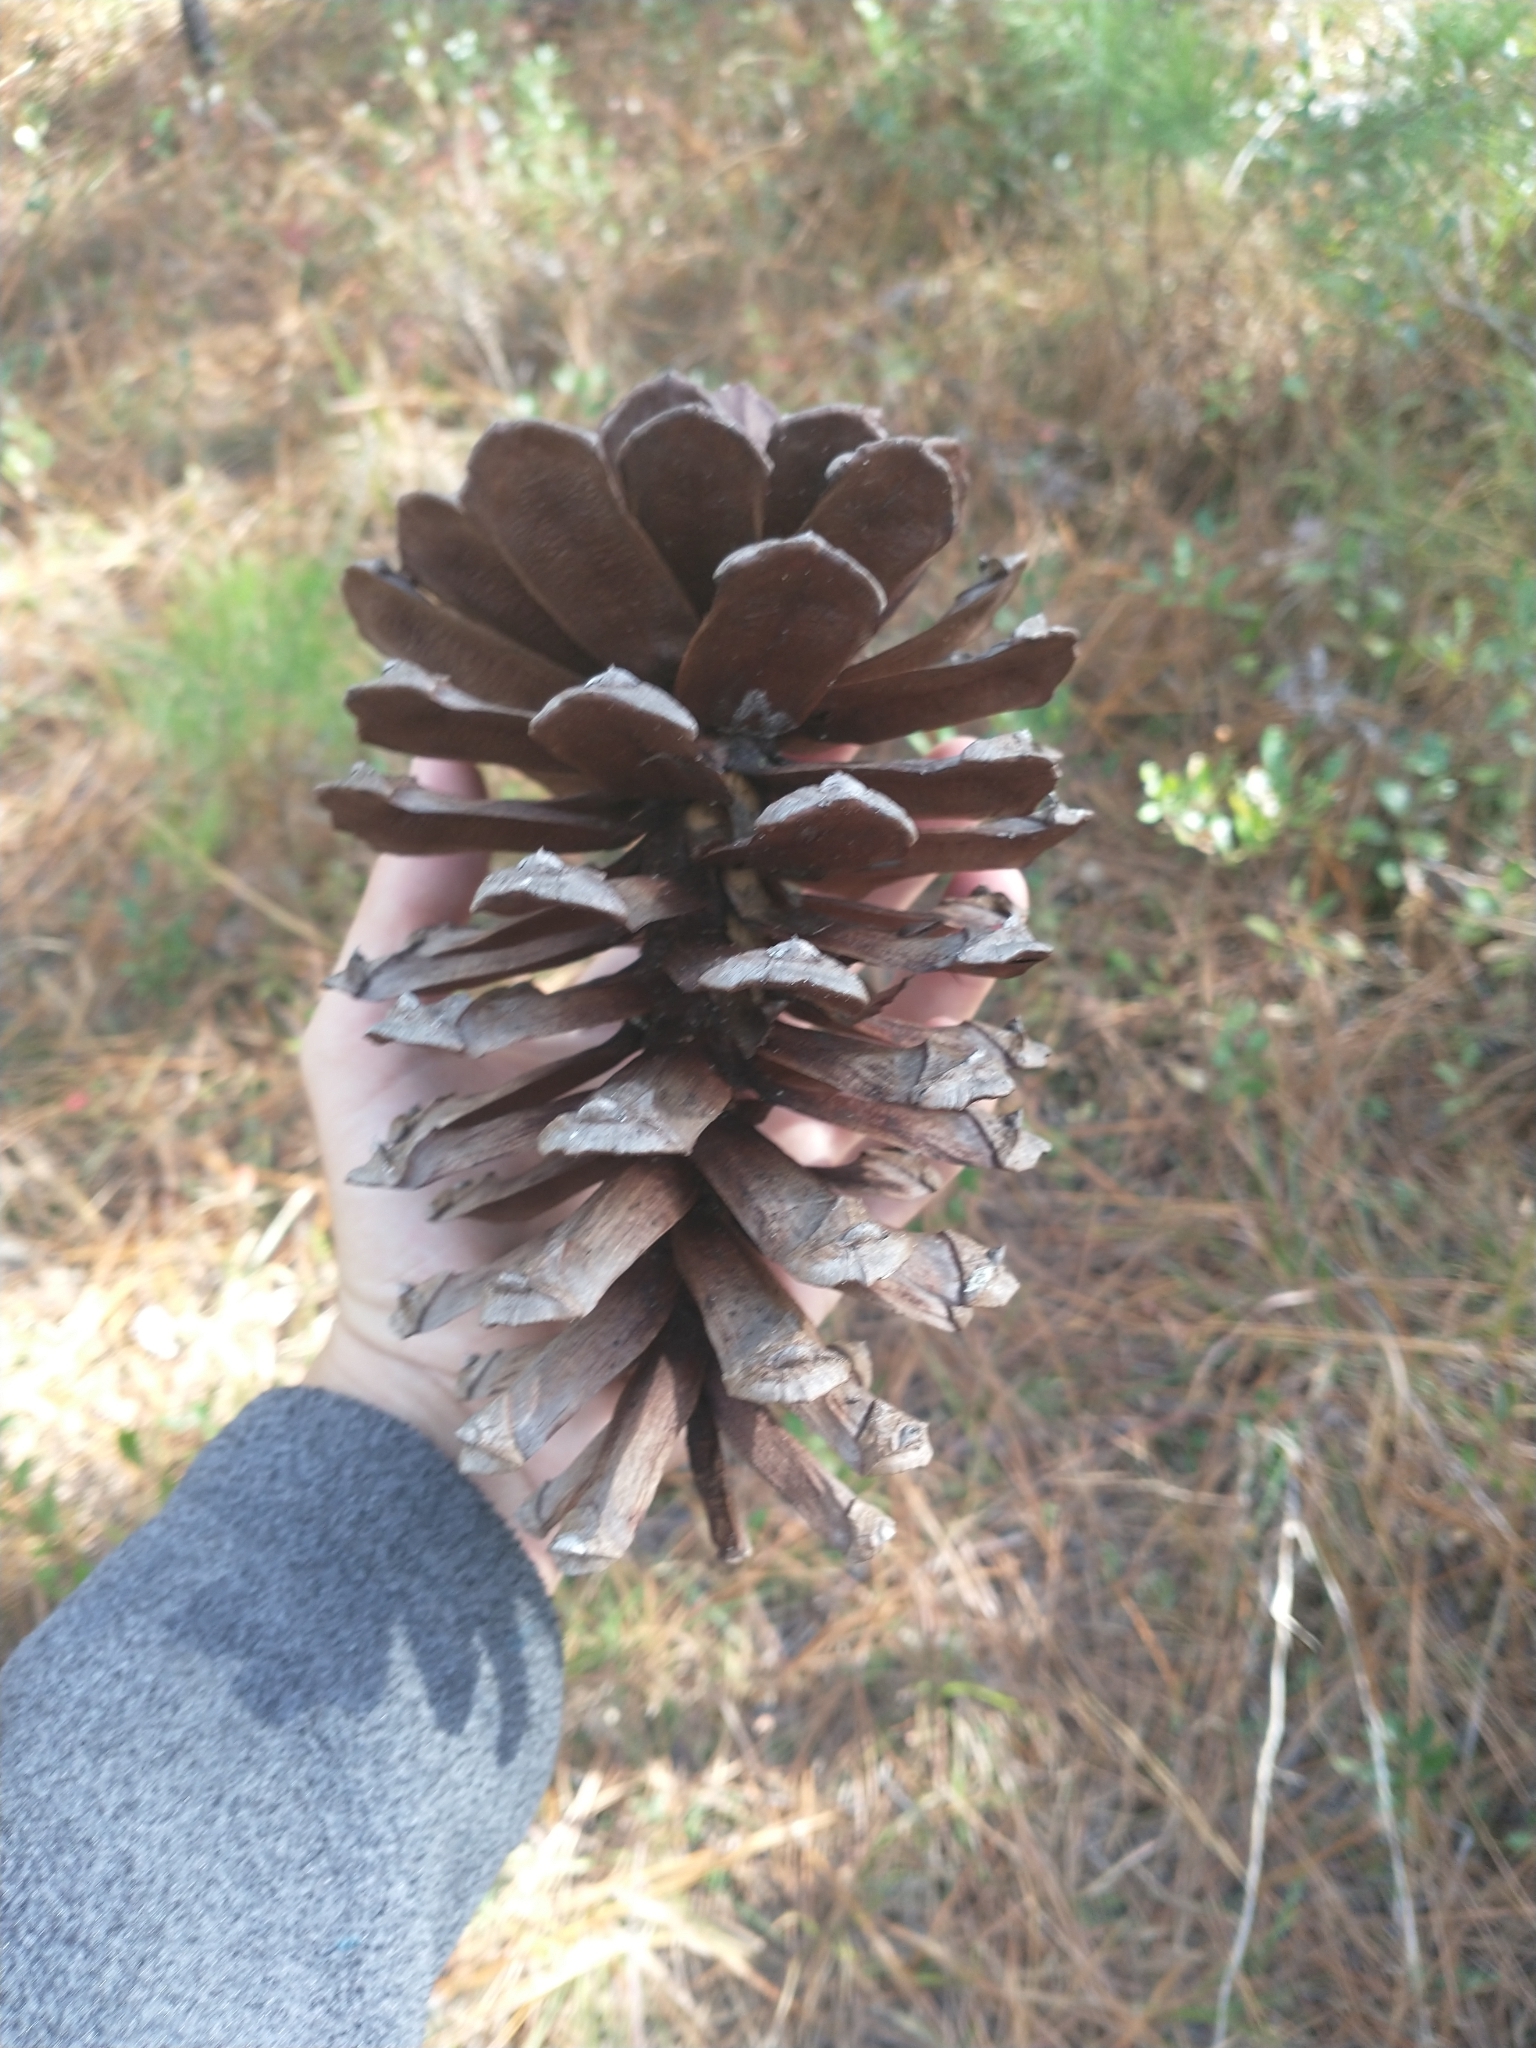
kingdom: Plantae
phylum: Tracheophyta
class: Pinopsida
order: Pinales
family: Pinaceae
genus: Pinus
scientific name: Pinus palustris
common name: Longleaf pine
